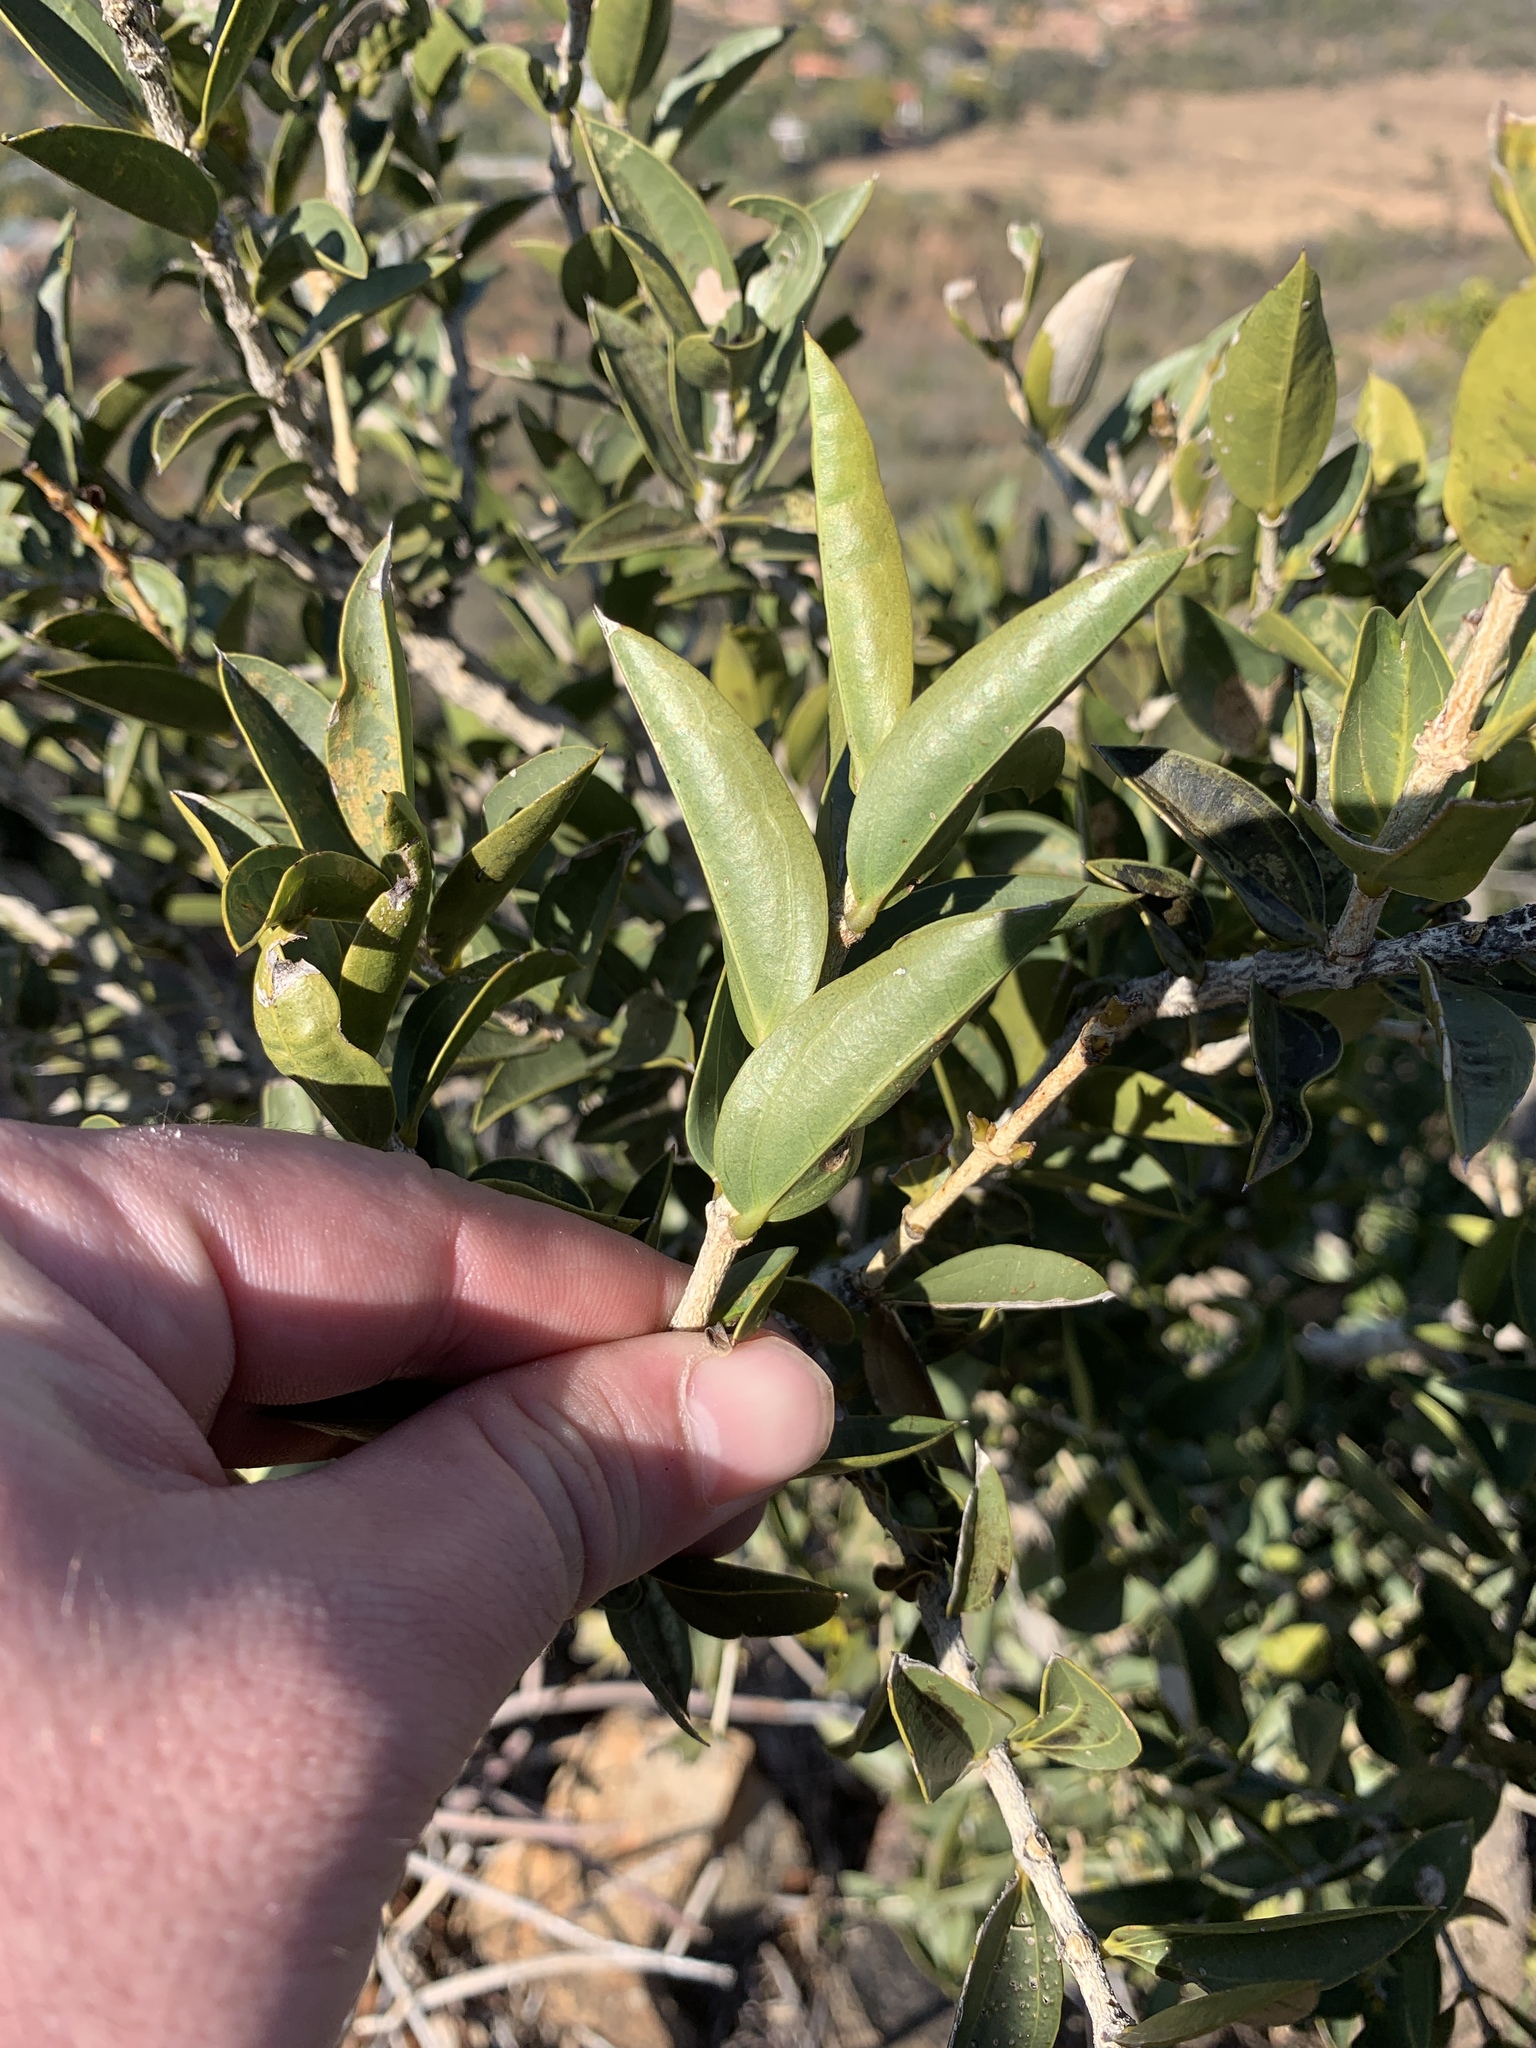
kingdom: Plantae
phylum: Tracheophyta
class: Magnoliopsida
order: Gentianales
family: Loganiaceae
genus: Strychnos
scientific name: Strychnos pungens
